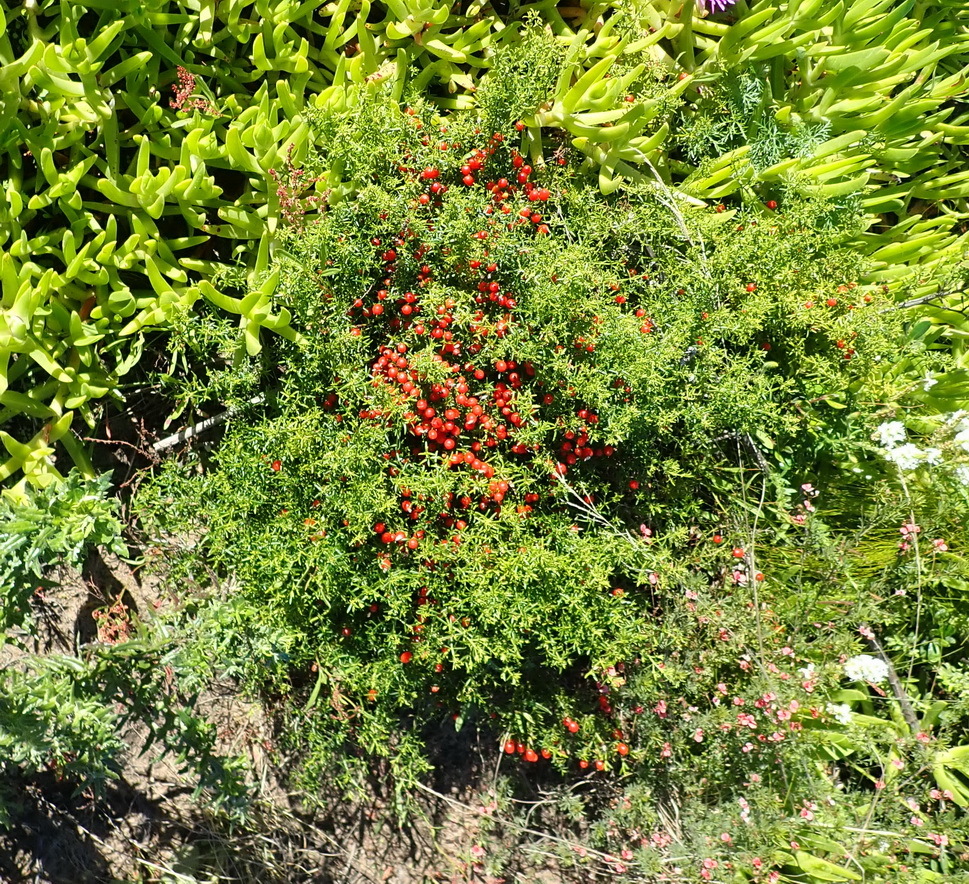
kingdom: Plantae
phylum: Tracheophyta
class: Magnoliopsida
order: Gentianales
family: Gentianaceae
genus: Chironia
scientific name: Chironia baccifera
